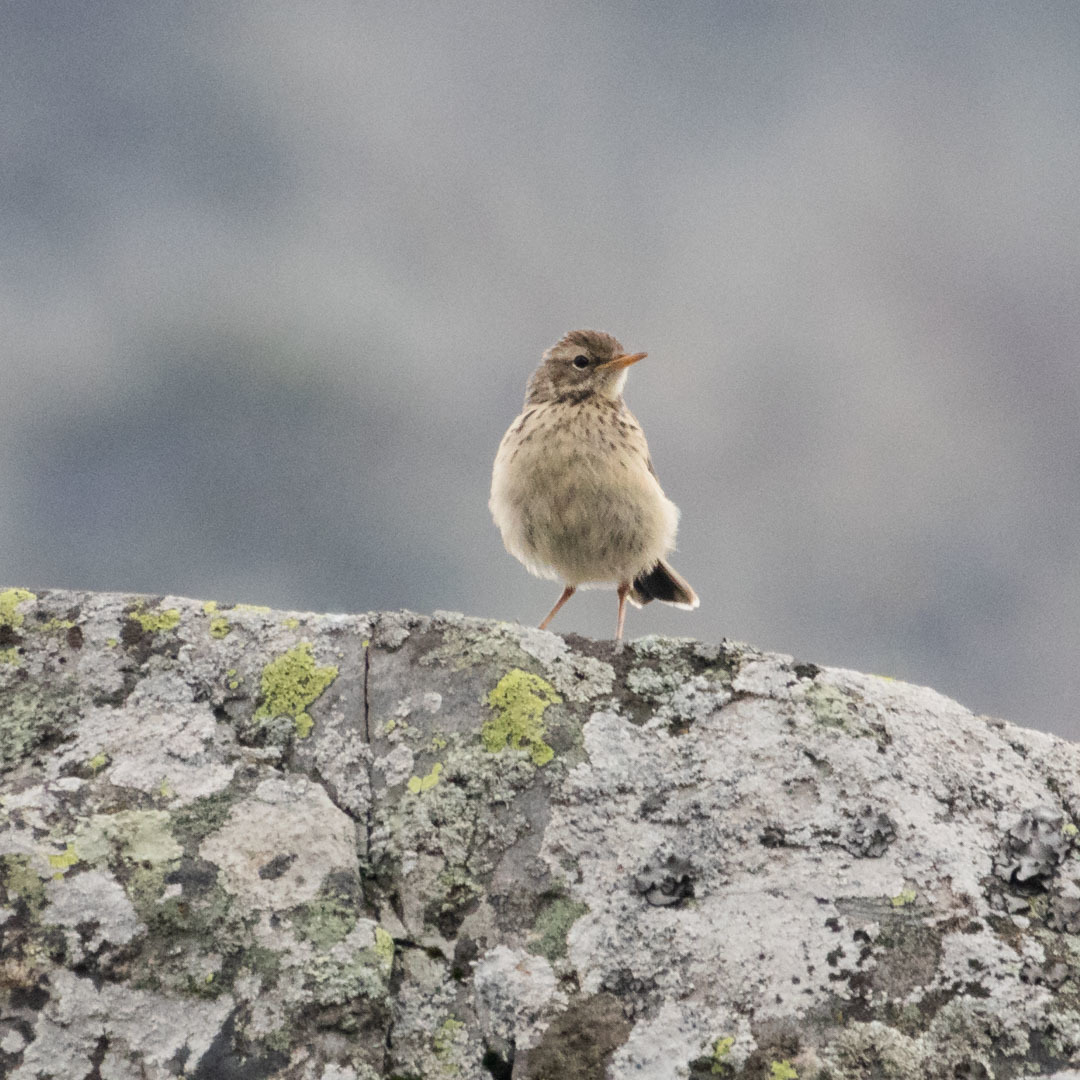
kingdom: Animalia
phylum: Chordata
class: Aves
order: Passeriformes
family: Motacillidae
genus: Anthus
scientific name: Anthus spinoletta
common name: Water pipit
